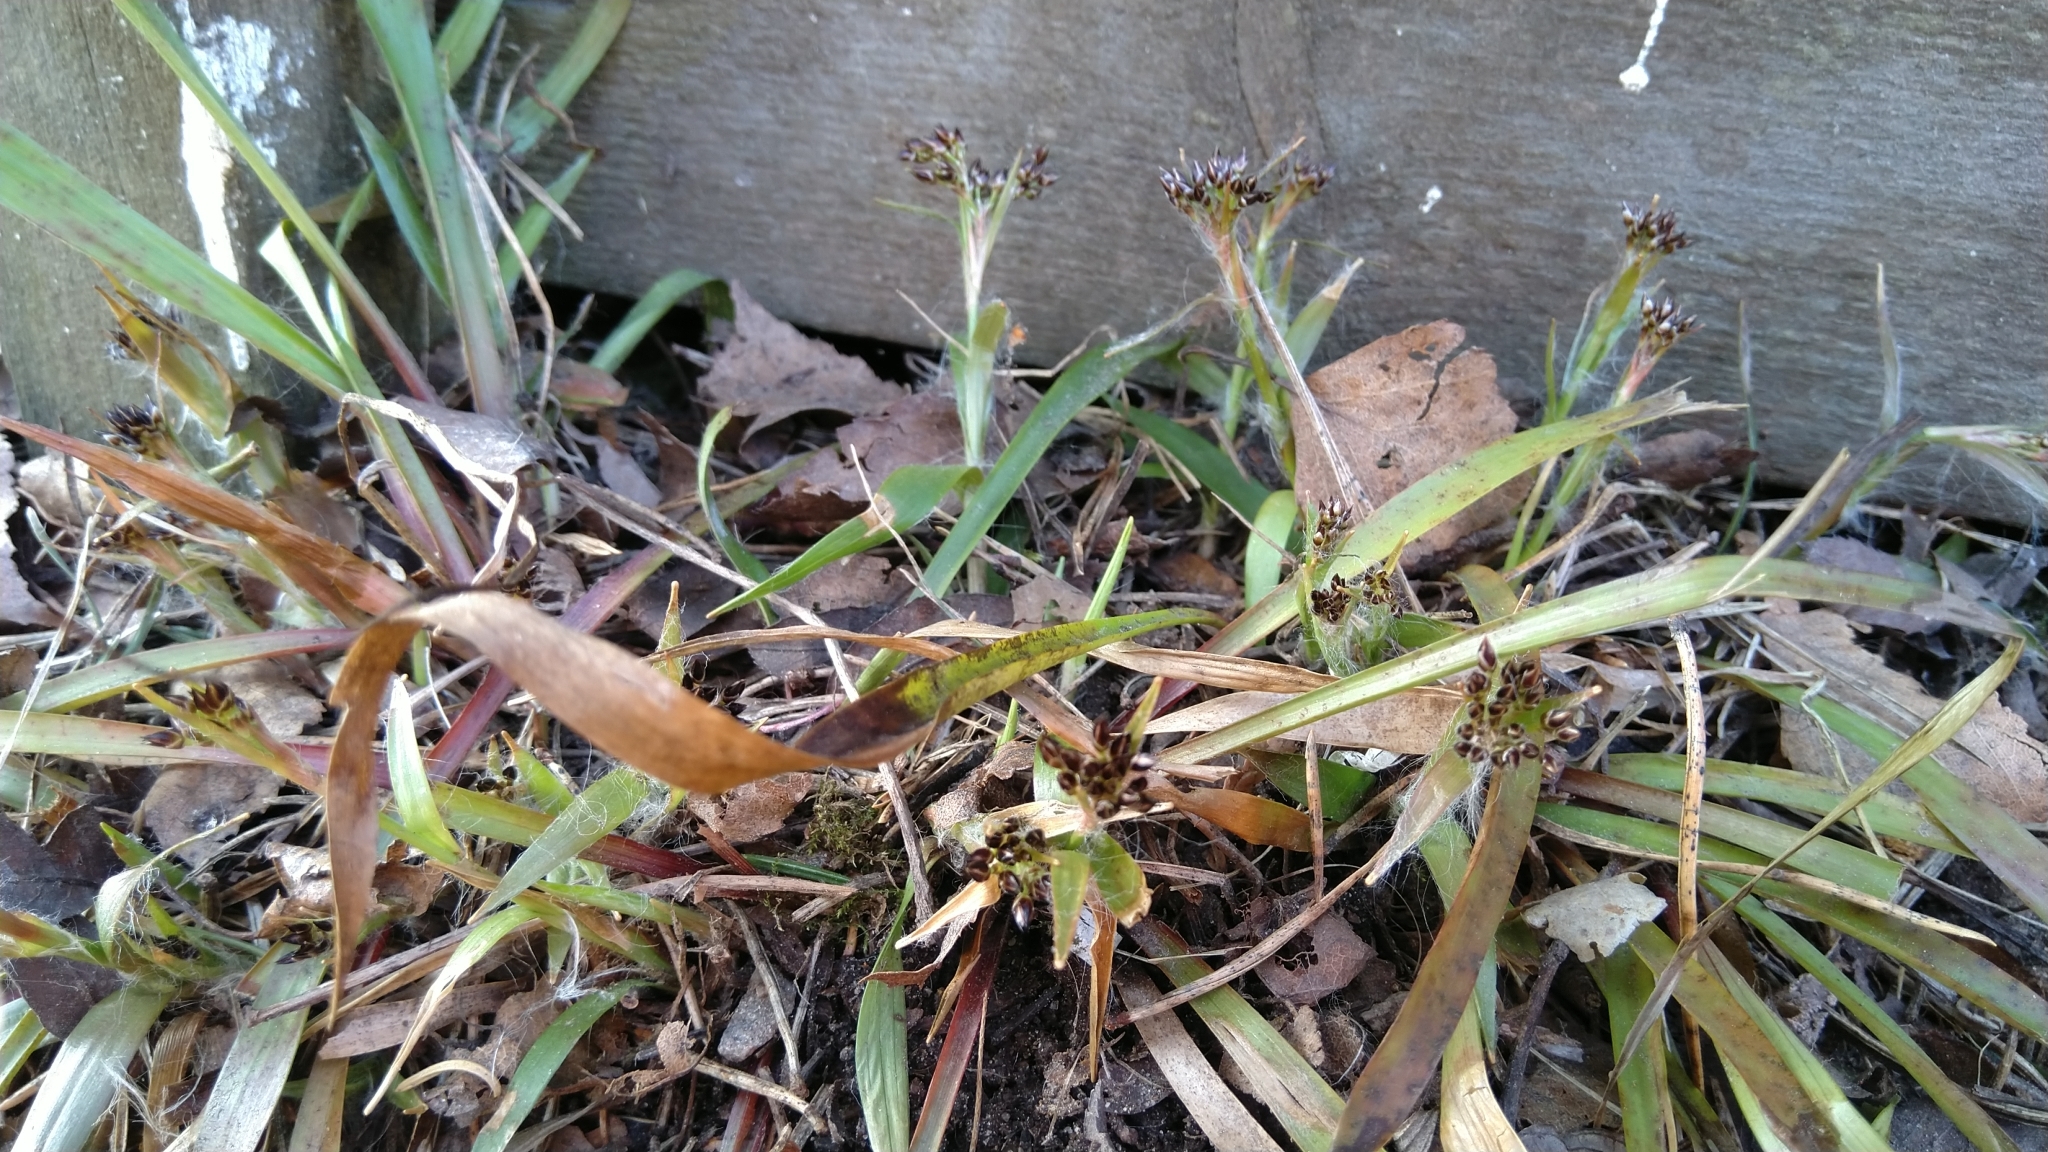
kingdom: Plantae
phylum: Tracheophyta
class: Liliopsida
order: Poales
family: Juncaceae
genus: Luzula
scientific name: Luzula pilosa
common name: Hairy wood-rush
